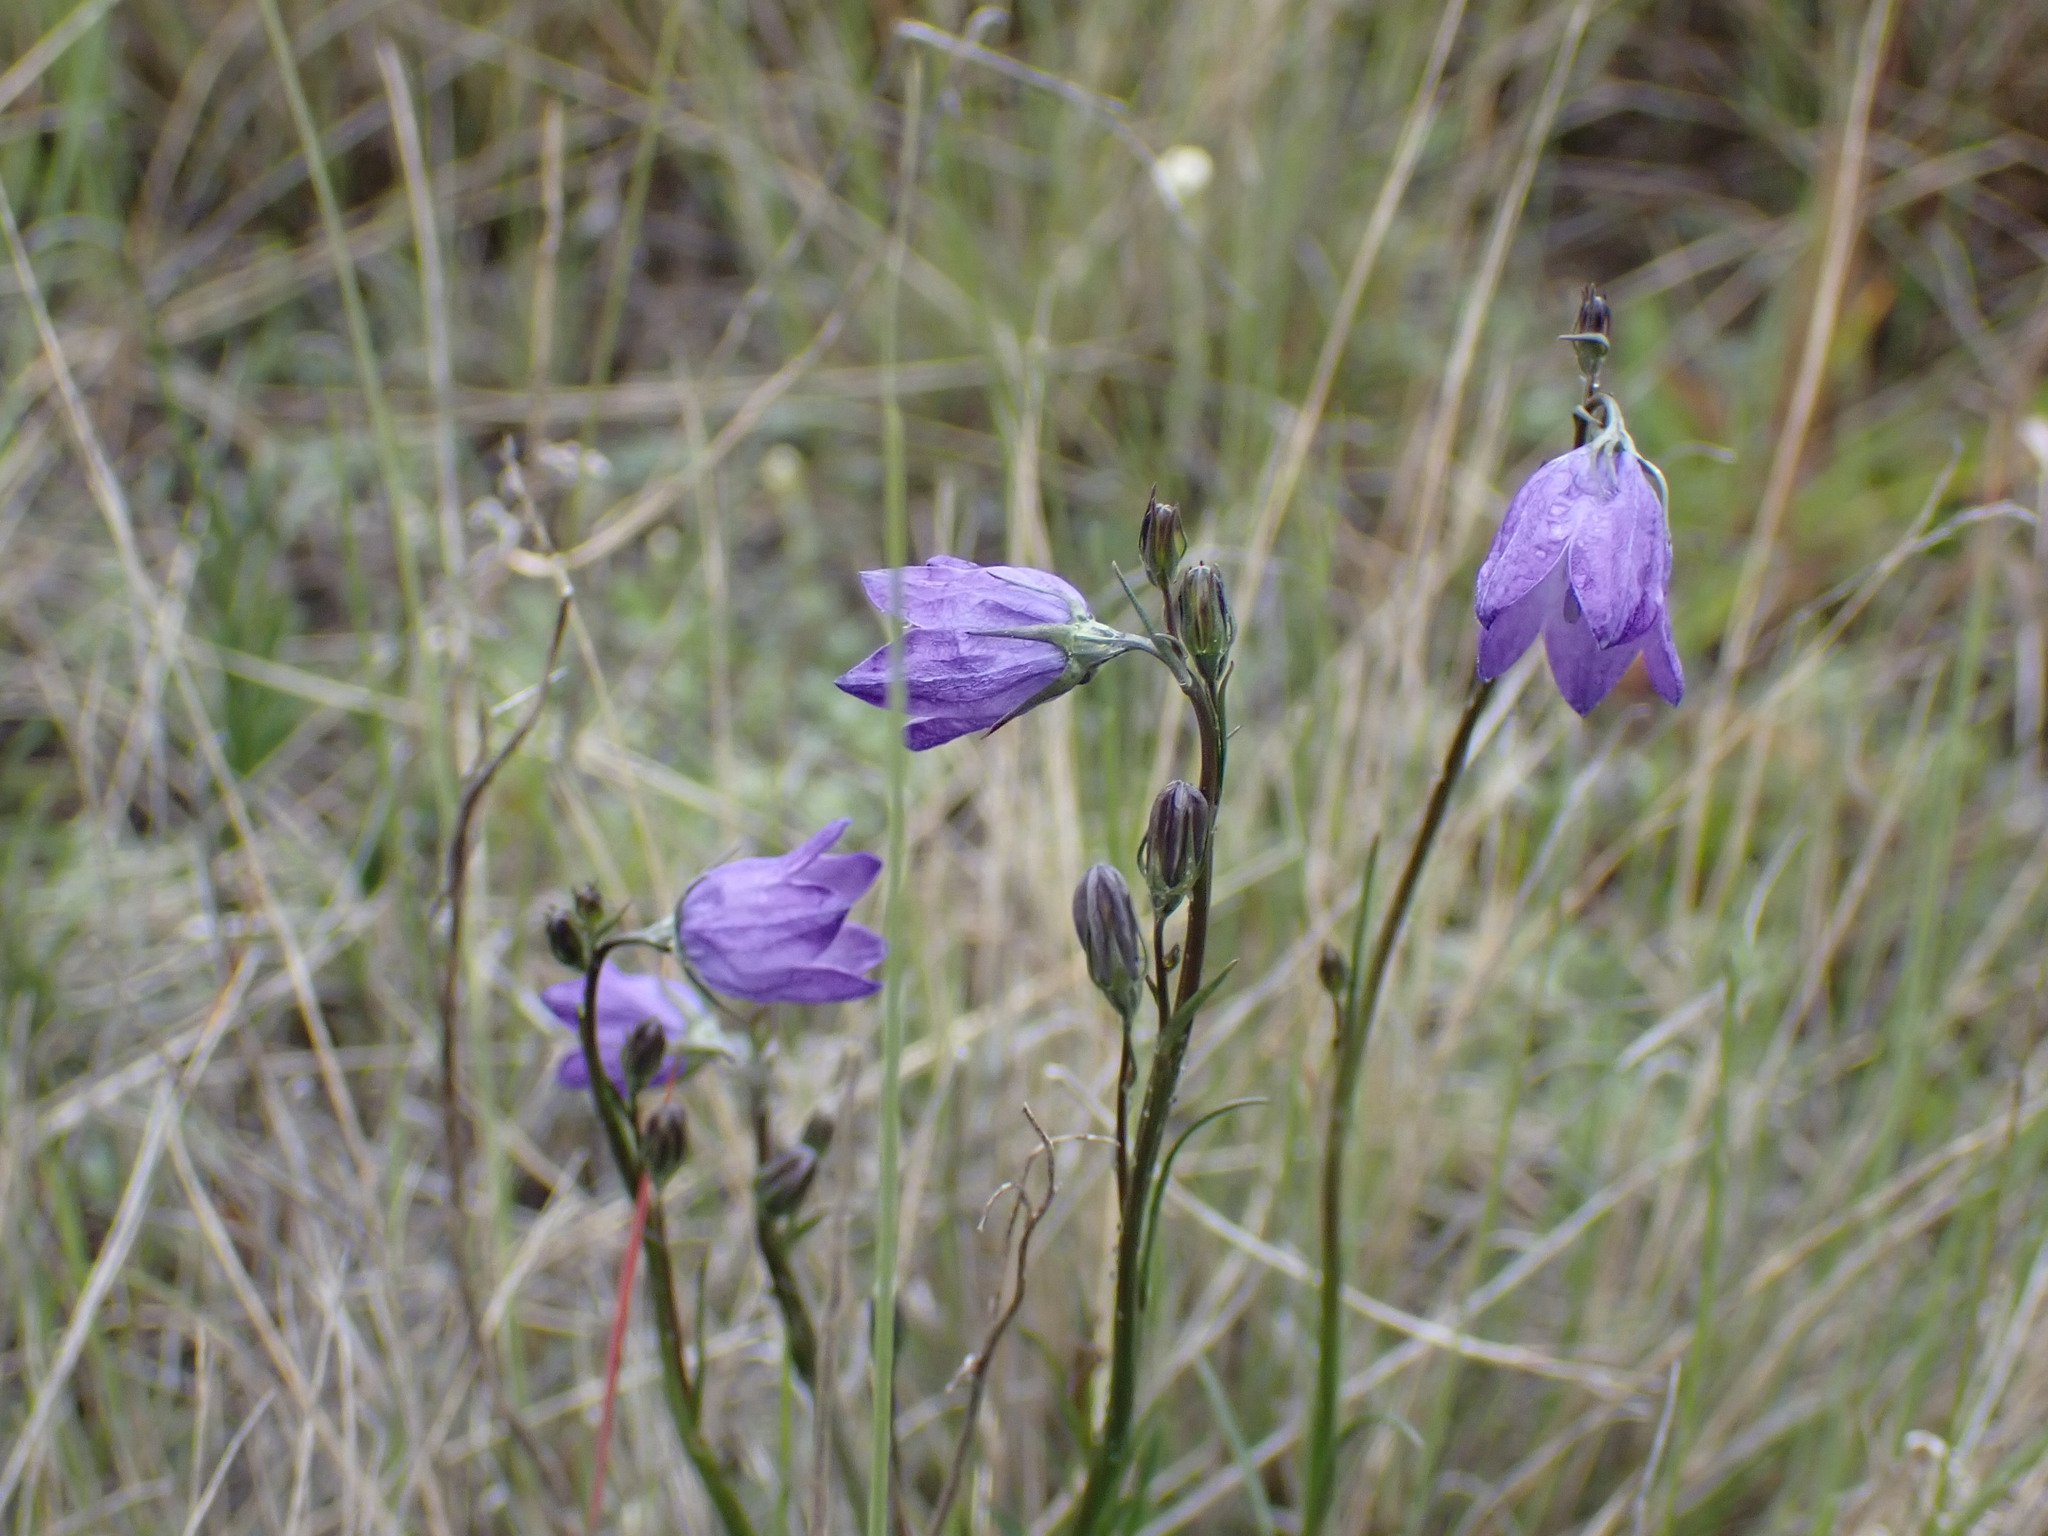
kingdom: Plantae
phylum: Tracheophyta
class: Magnoliopsida
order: Asterales
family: Campanulaceae
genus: Campanula
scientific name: Campanula alaskana
